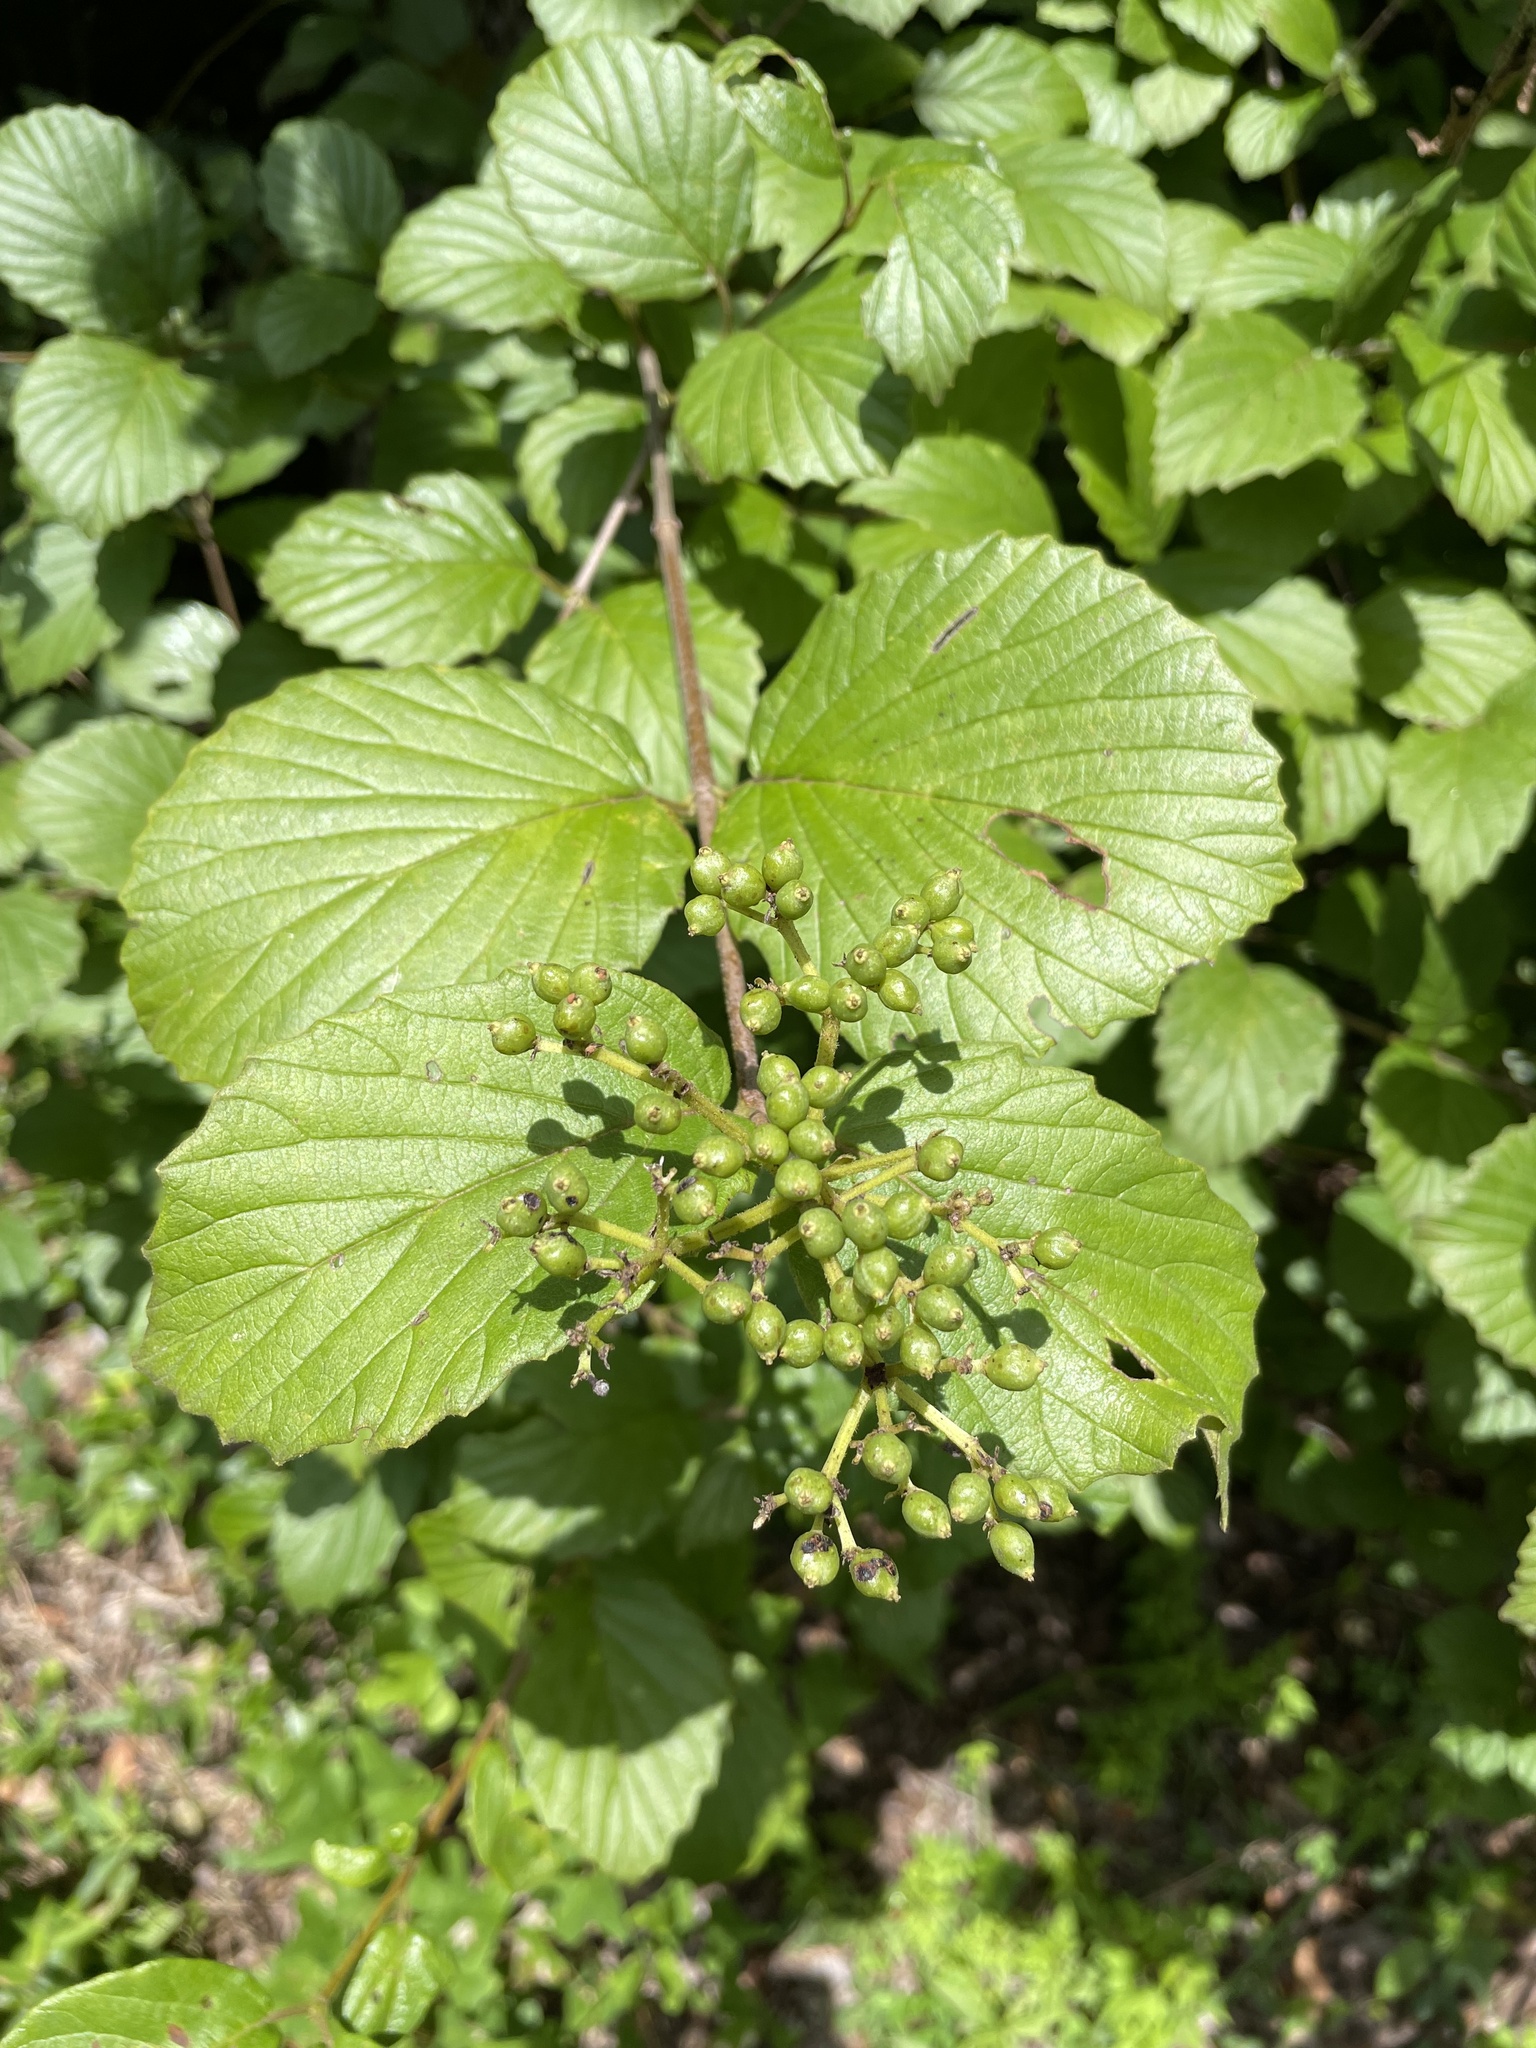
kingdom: Plantae
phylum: Tracheophyta
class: Magnoliopsida
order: Dipsacales
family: Viburnaceae
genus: Viburnum
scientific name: Viburnum scabrellum
